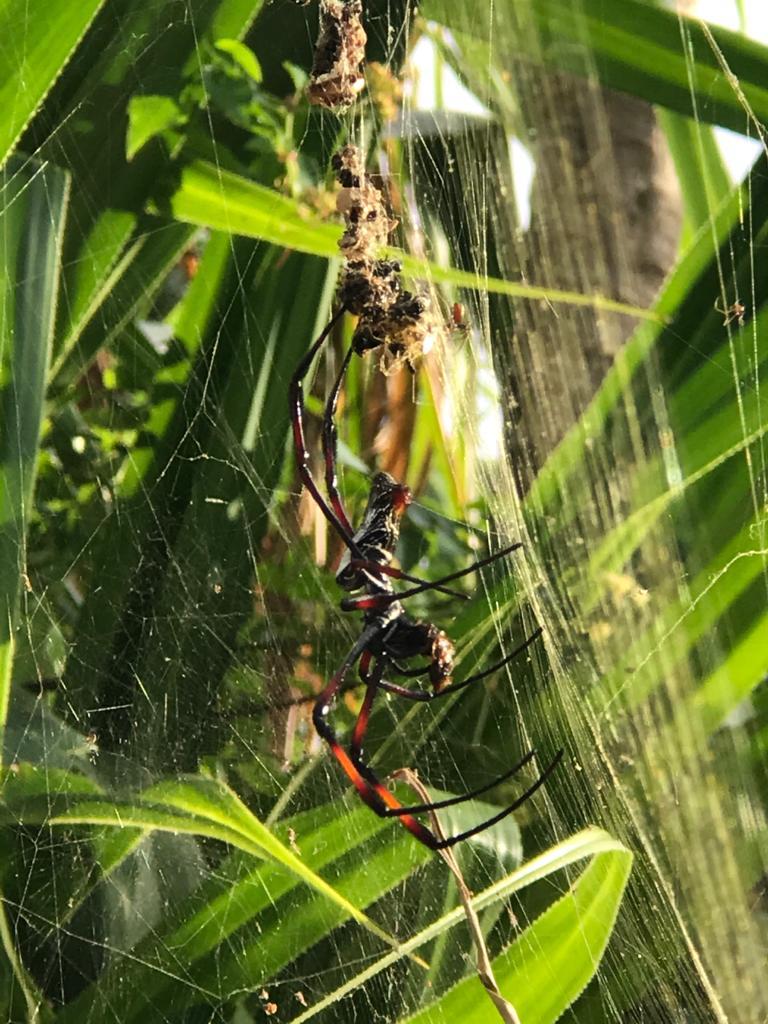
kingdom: Animalia
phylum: Arthropoda
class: Arachnida
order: Araneae
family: Araneidae
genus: Trichonephila
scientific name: Trichonephila inaurata
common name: Red-legged golden orb weaver
